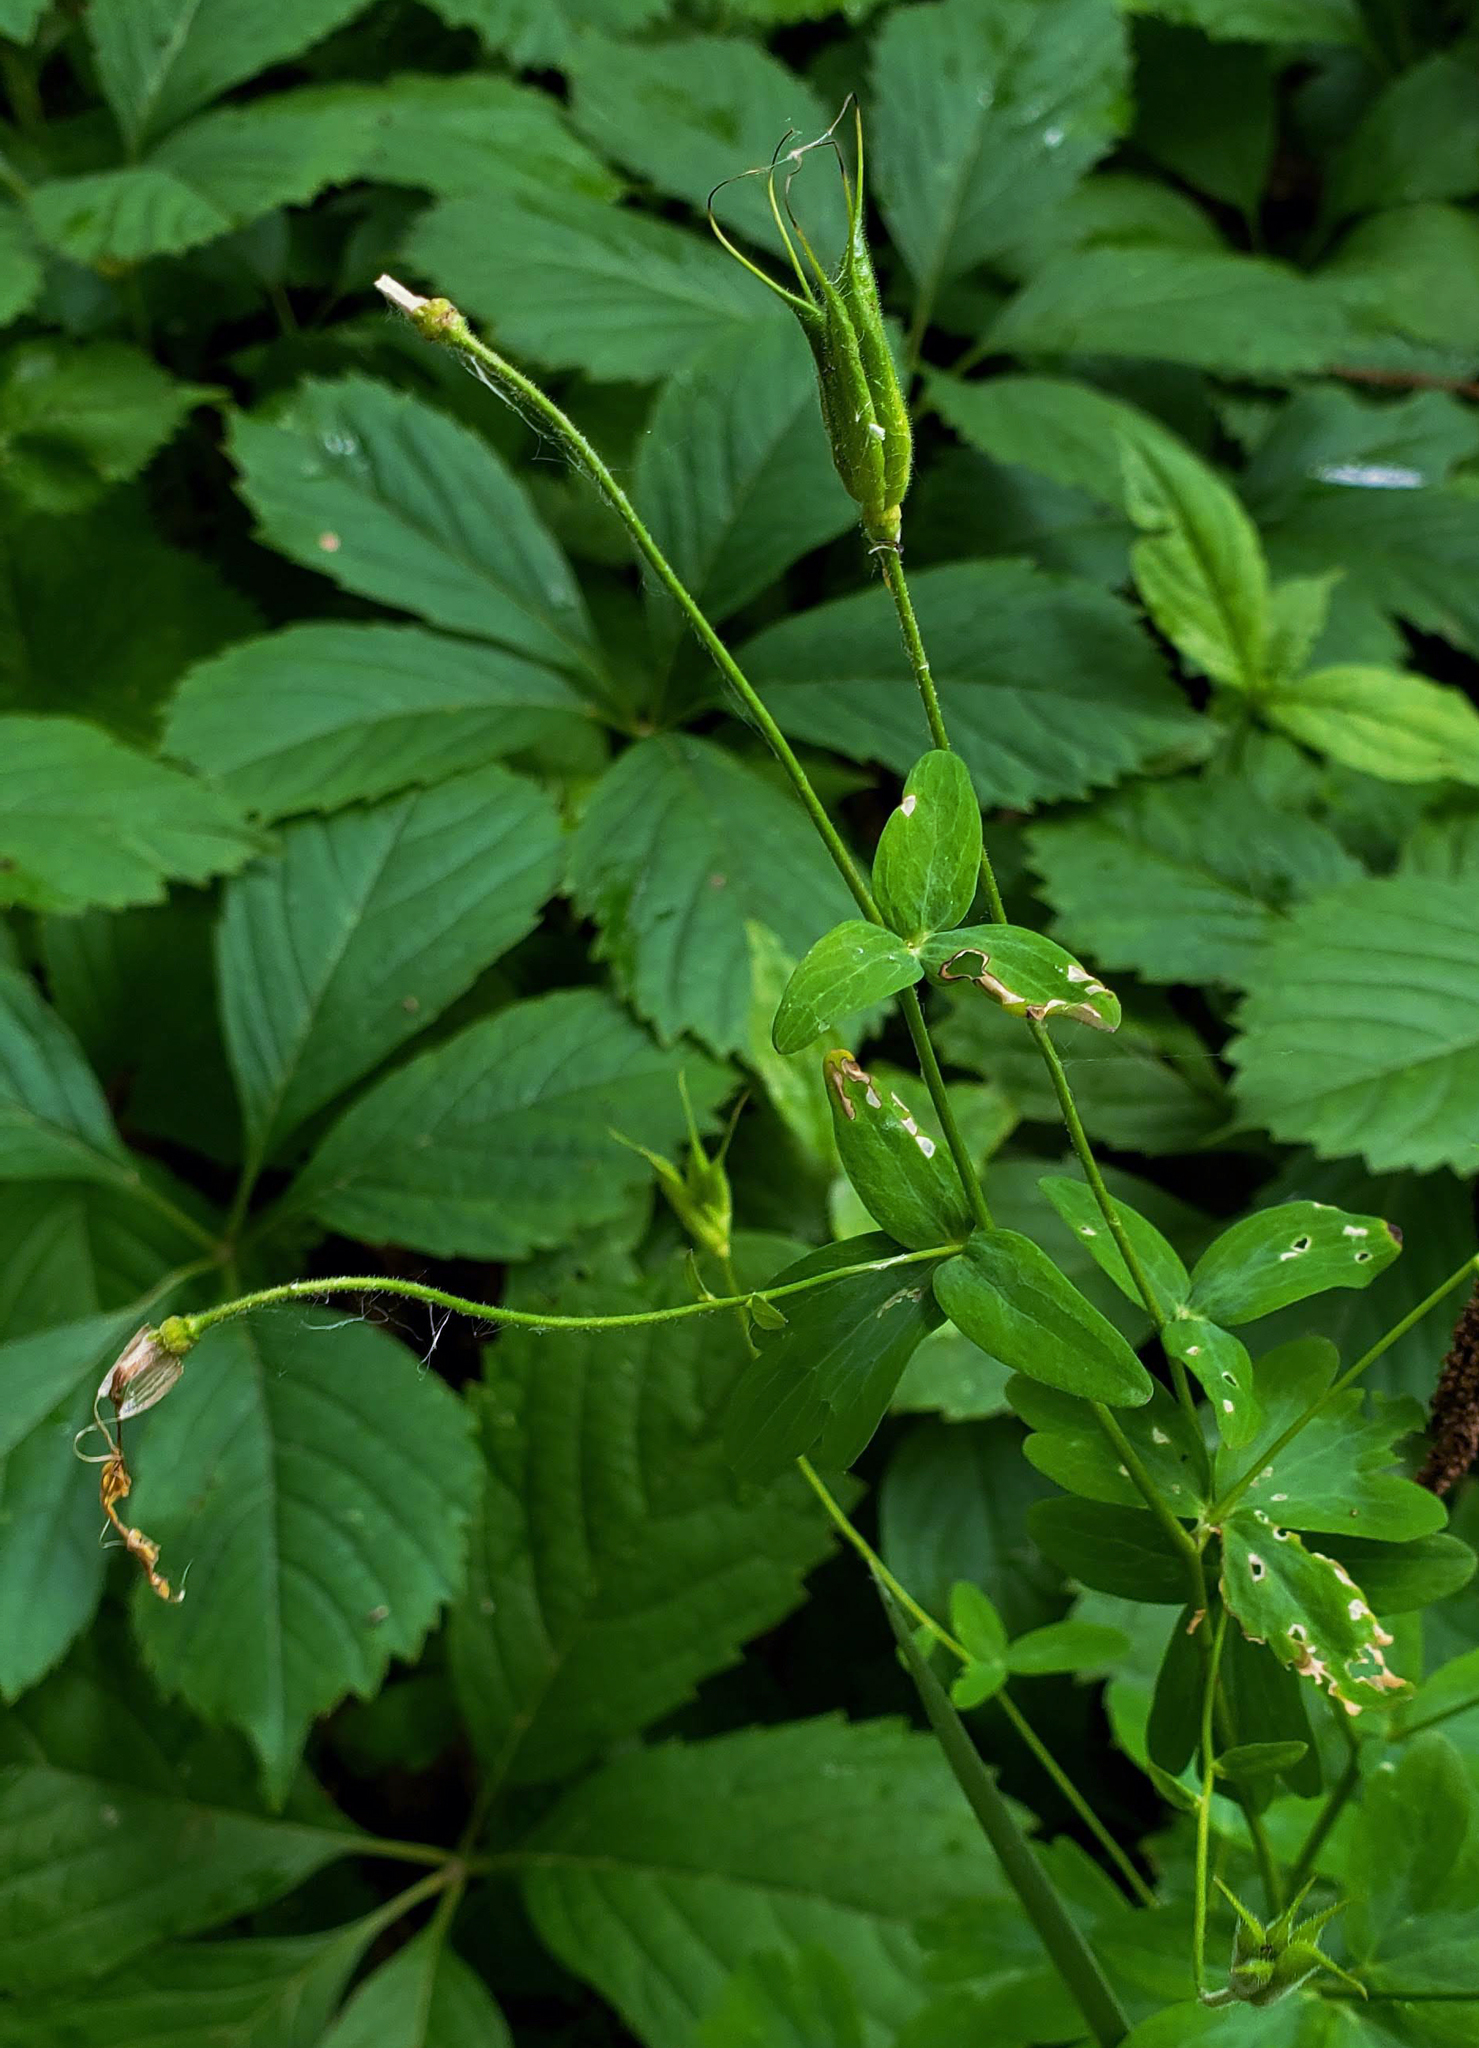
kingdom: Plantae
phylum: Tracheophyta
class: Magnoliopsida
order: Ranunculales
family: Ranunculaceae
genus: Aquilegia
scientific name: Aquilegia canadensis
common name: American columbine
